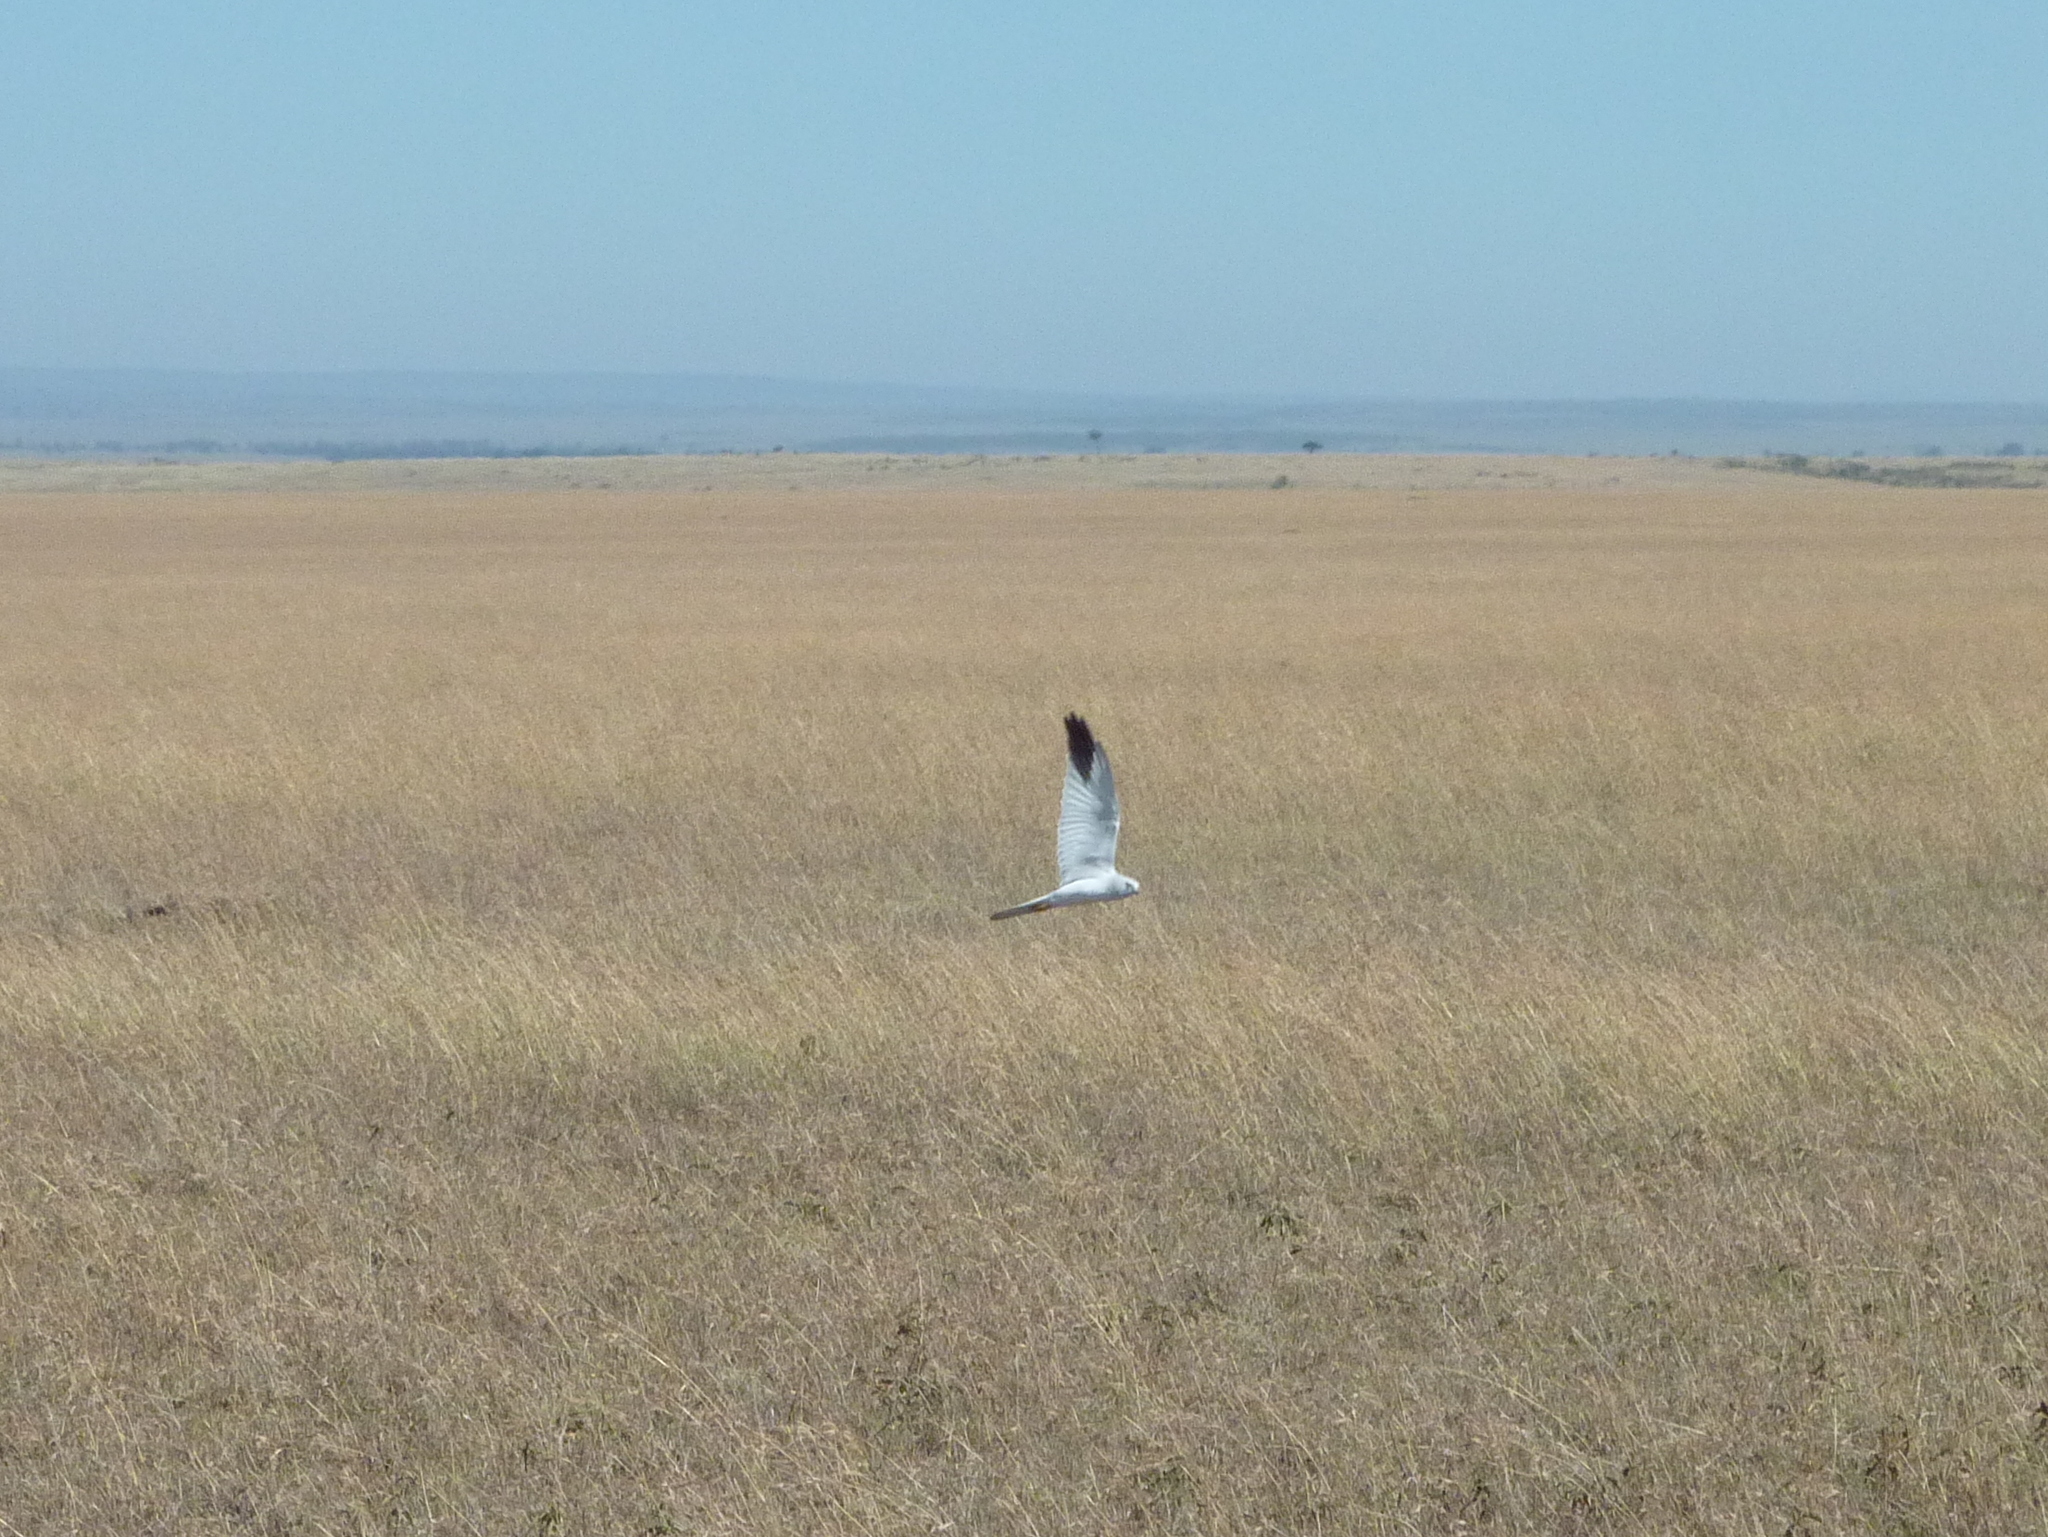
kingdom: Animalia
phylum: Chordata
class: Aves
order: Accipitriformes
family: Accipitridae
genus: Circus
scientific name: Circus macrourus
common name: Pallid harrier
